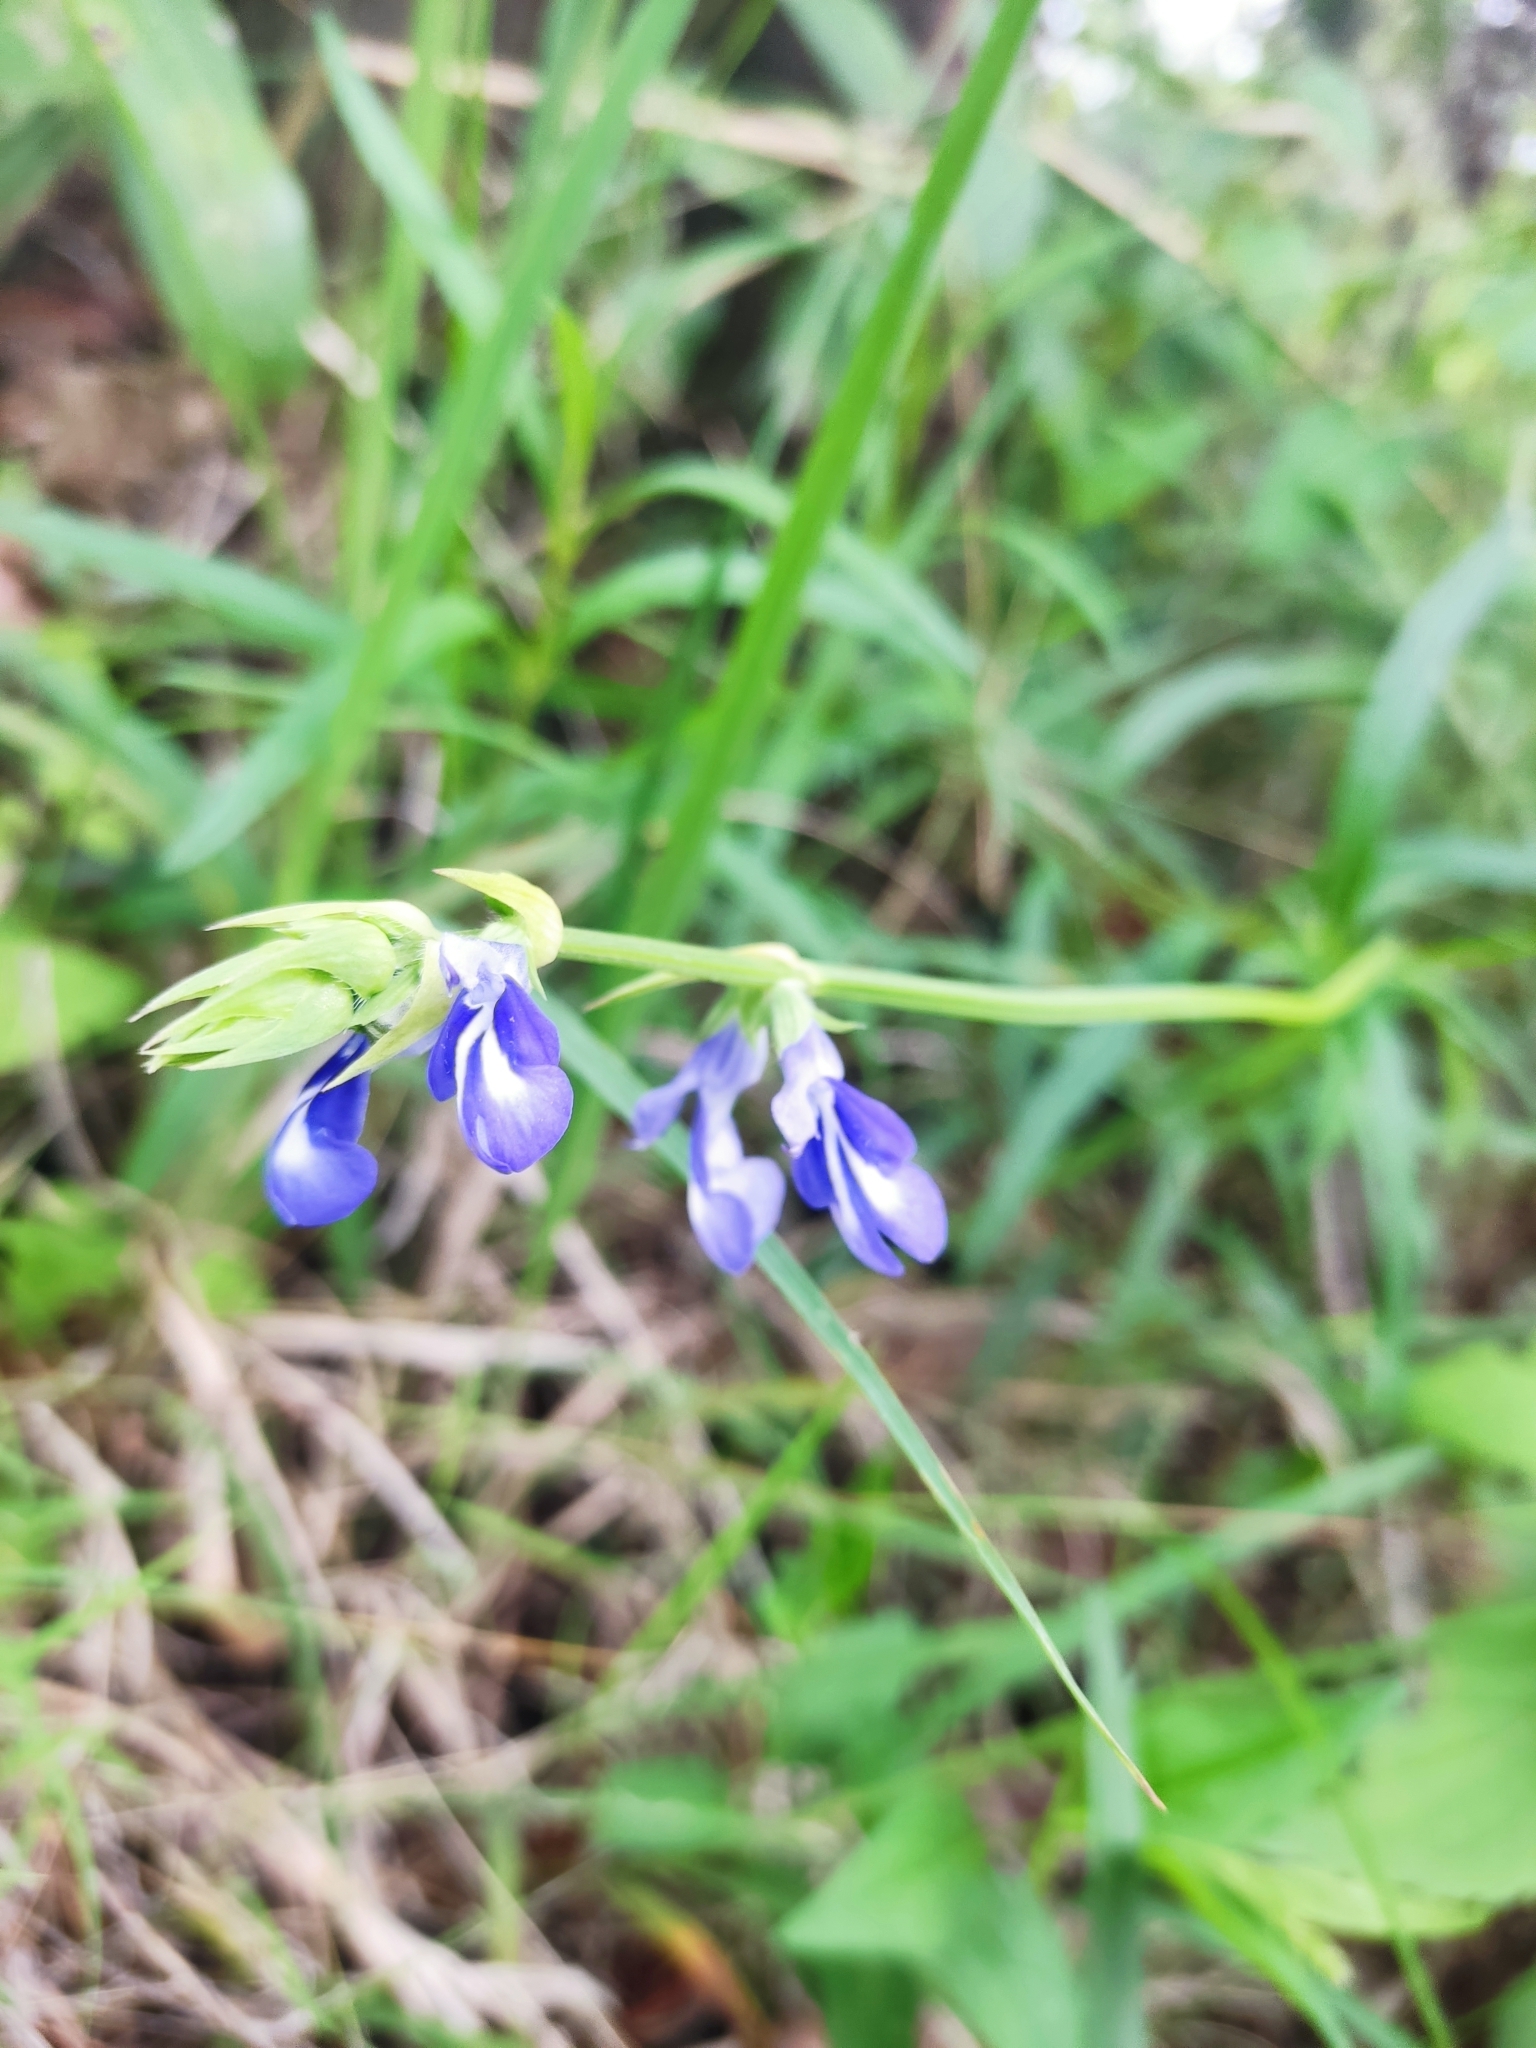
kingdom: Plantae
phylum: Tracheophyta
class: Magnoliopsida
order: Lamiales
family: Lamiaceae
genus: Salvia
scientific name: Salvia laevis
